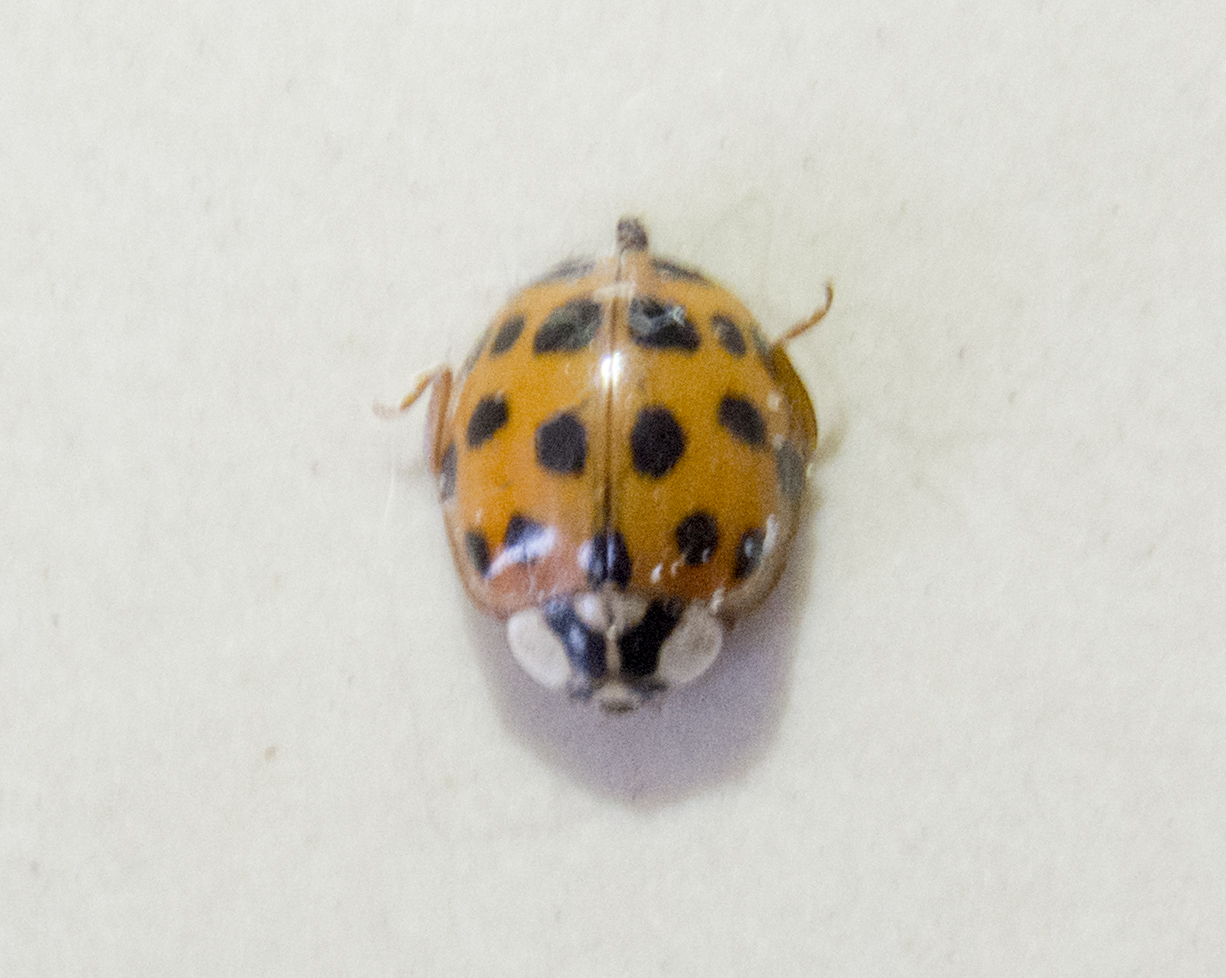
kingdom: Animalia
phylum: Arthropoda
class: Insecta
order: Coleoptera
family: Coccinellidae
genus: Harmonia
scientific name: Harmonia axyridis
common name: Harlequin ladybird
